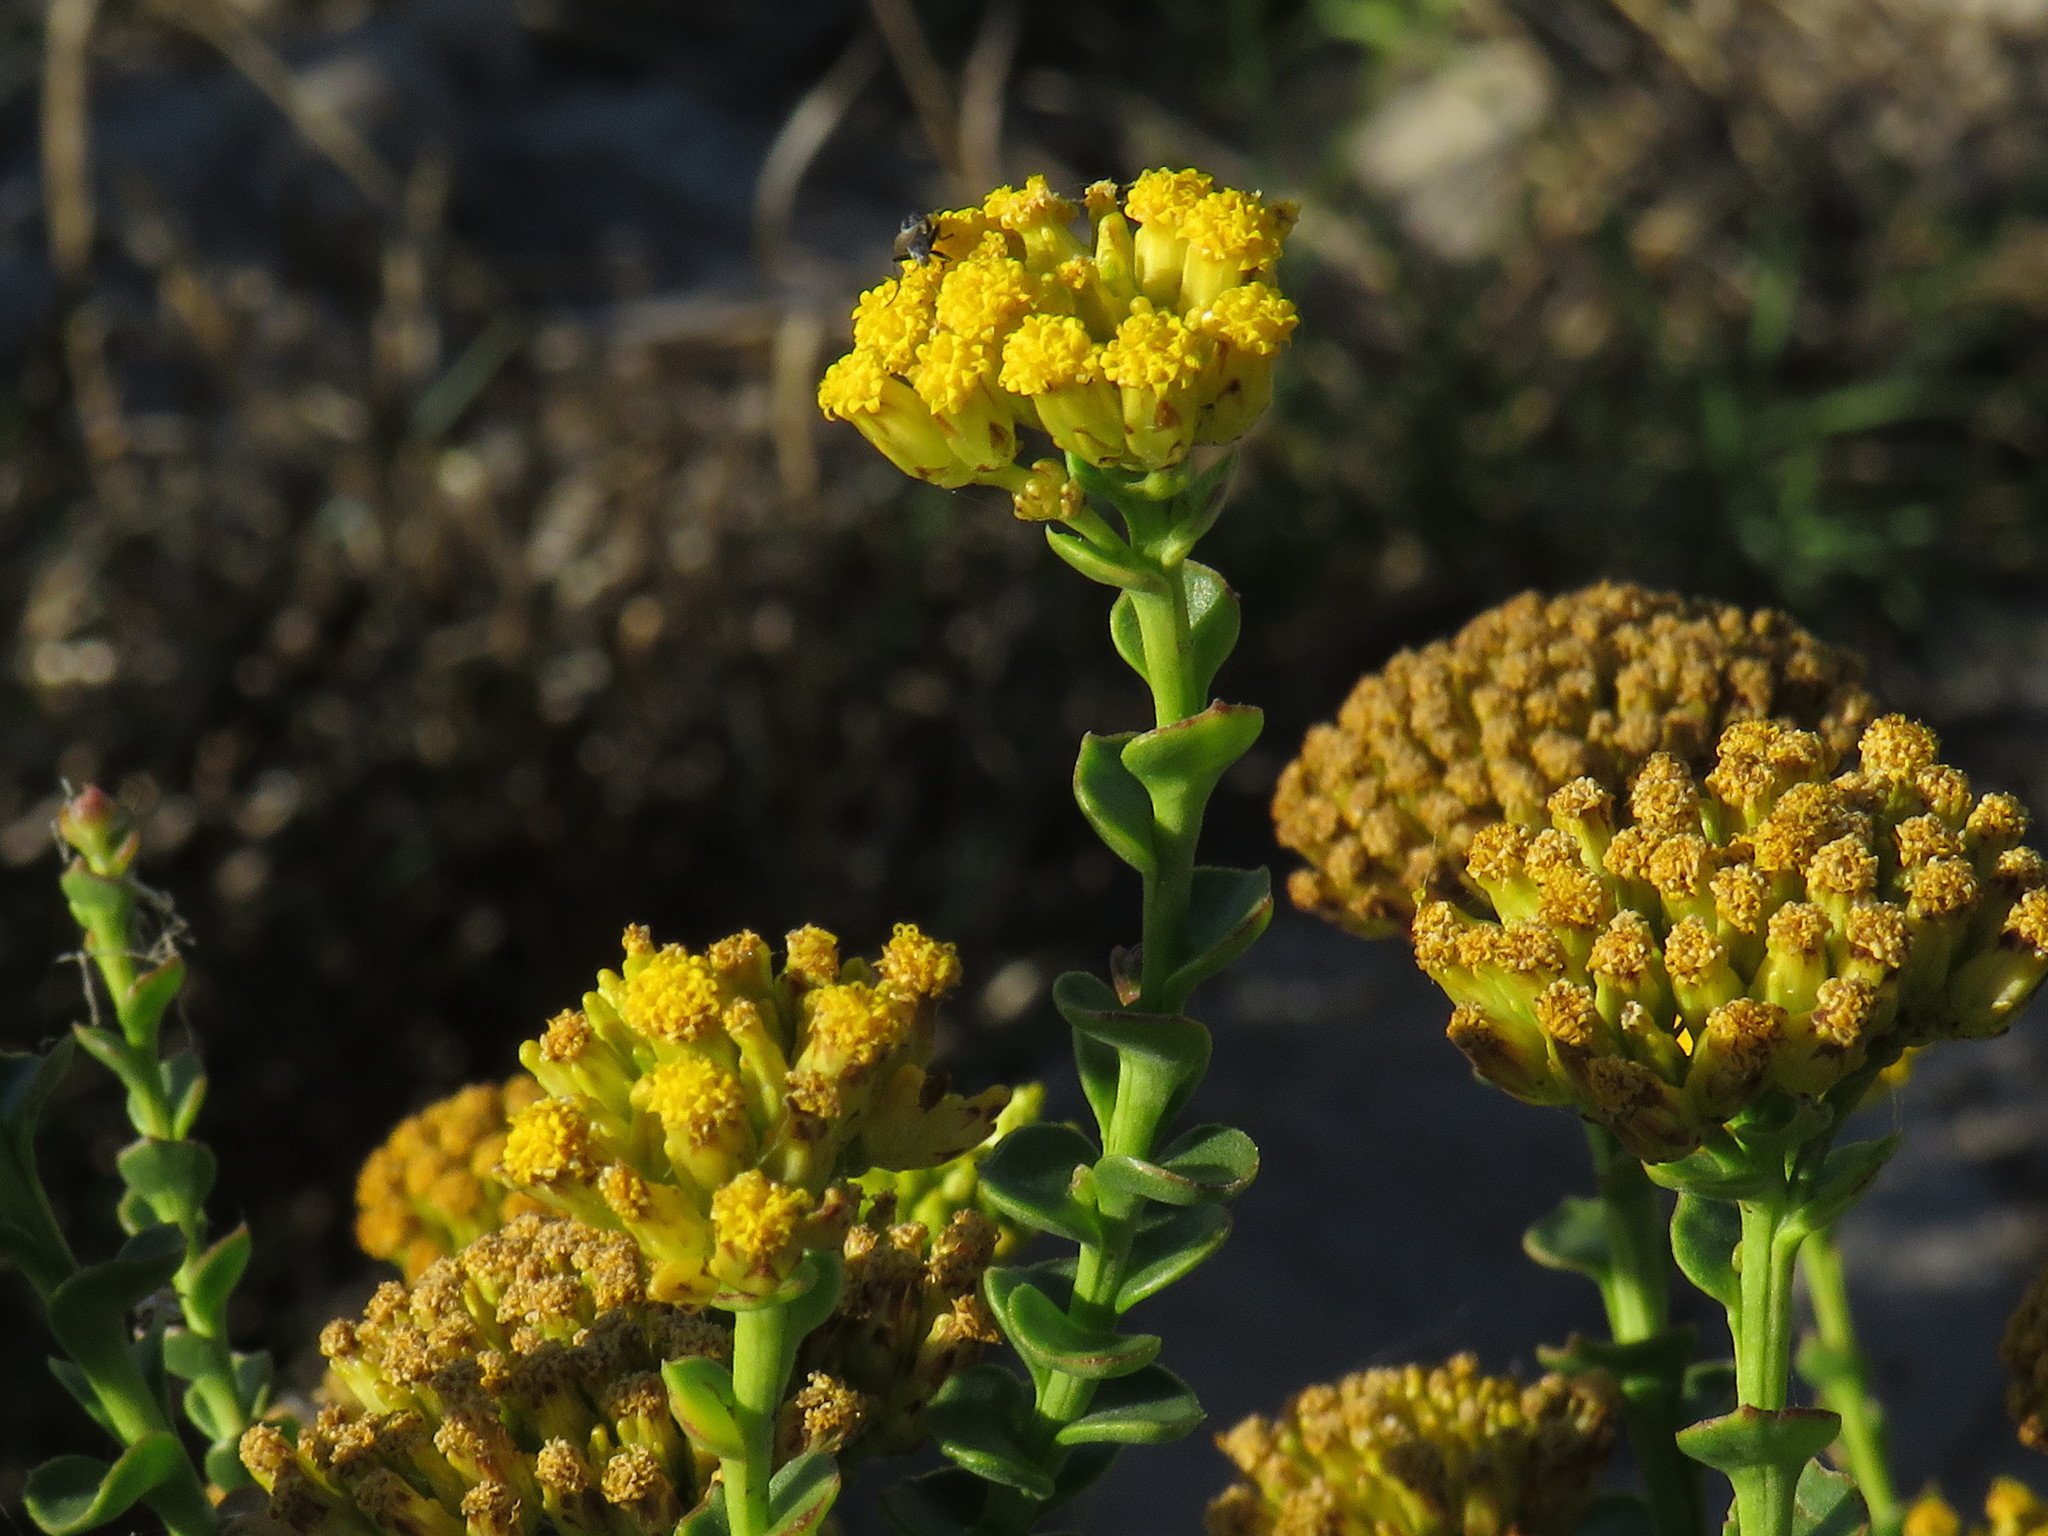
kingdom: Plantae
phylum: Tracheophyta
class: Magnoliopsida
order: Asterales
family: Asteraceae
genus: Athanasia
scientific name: Athanasia dentata
